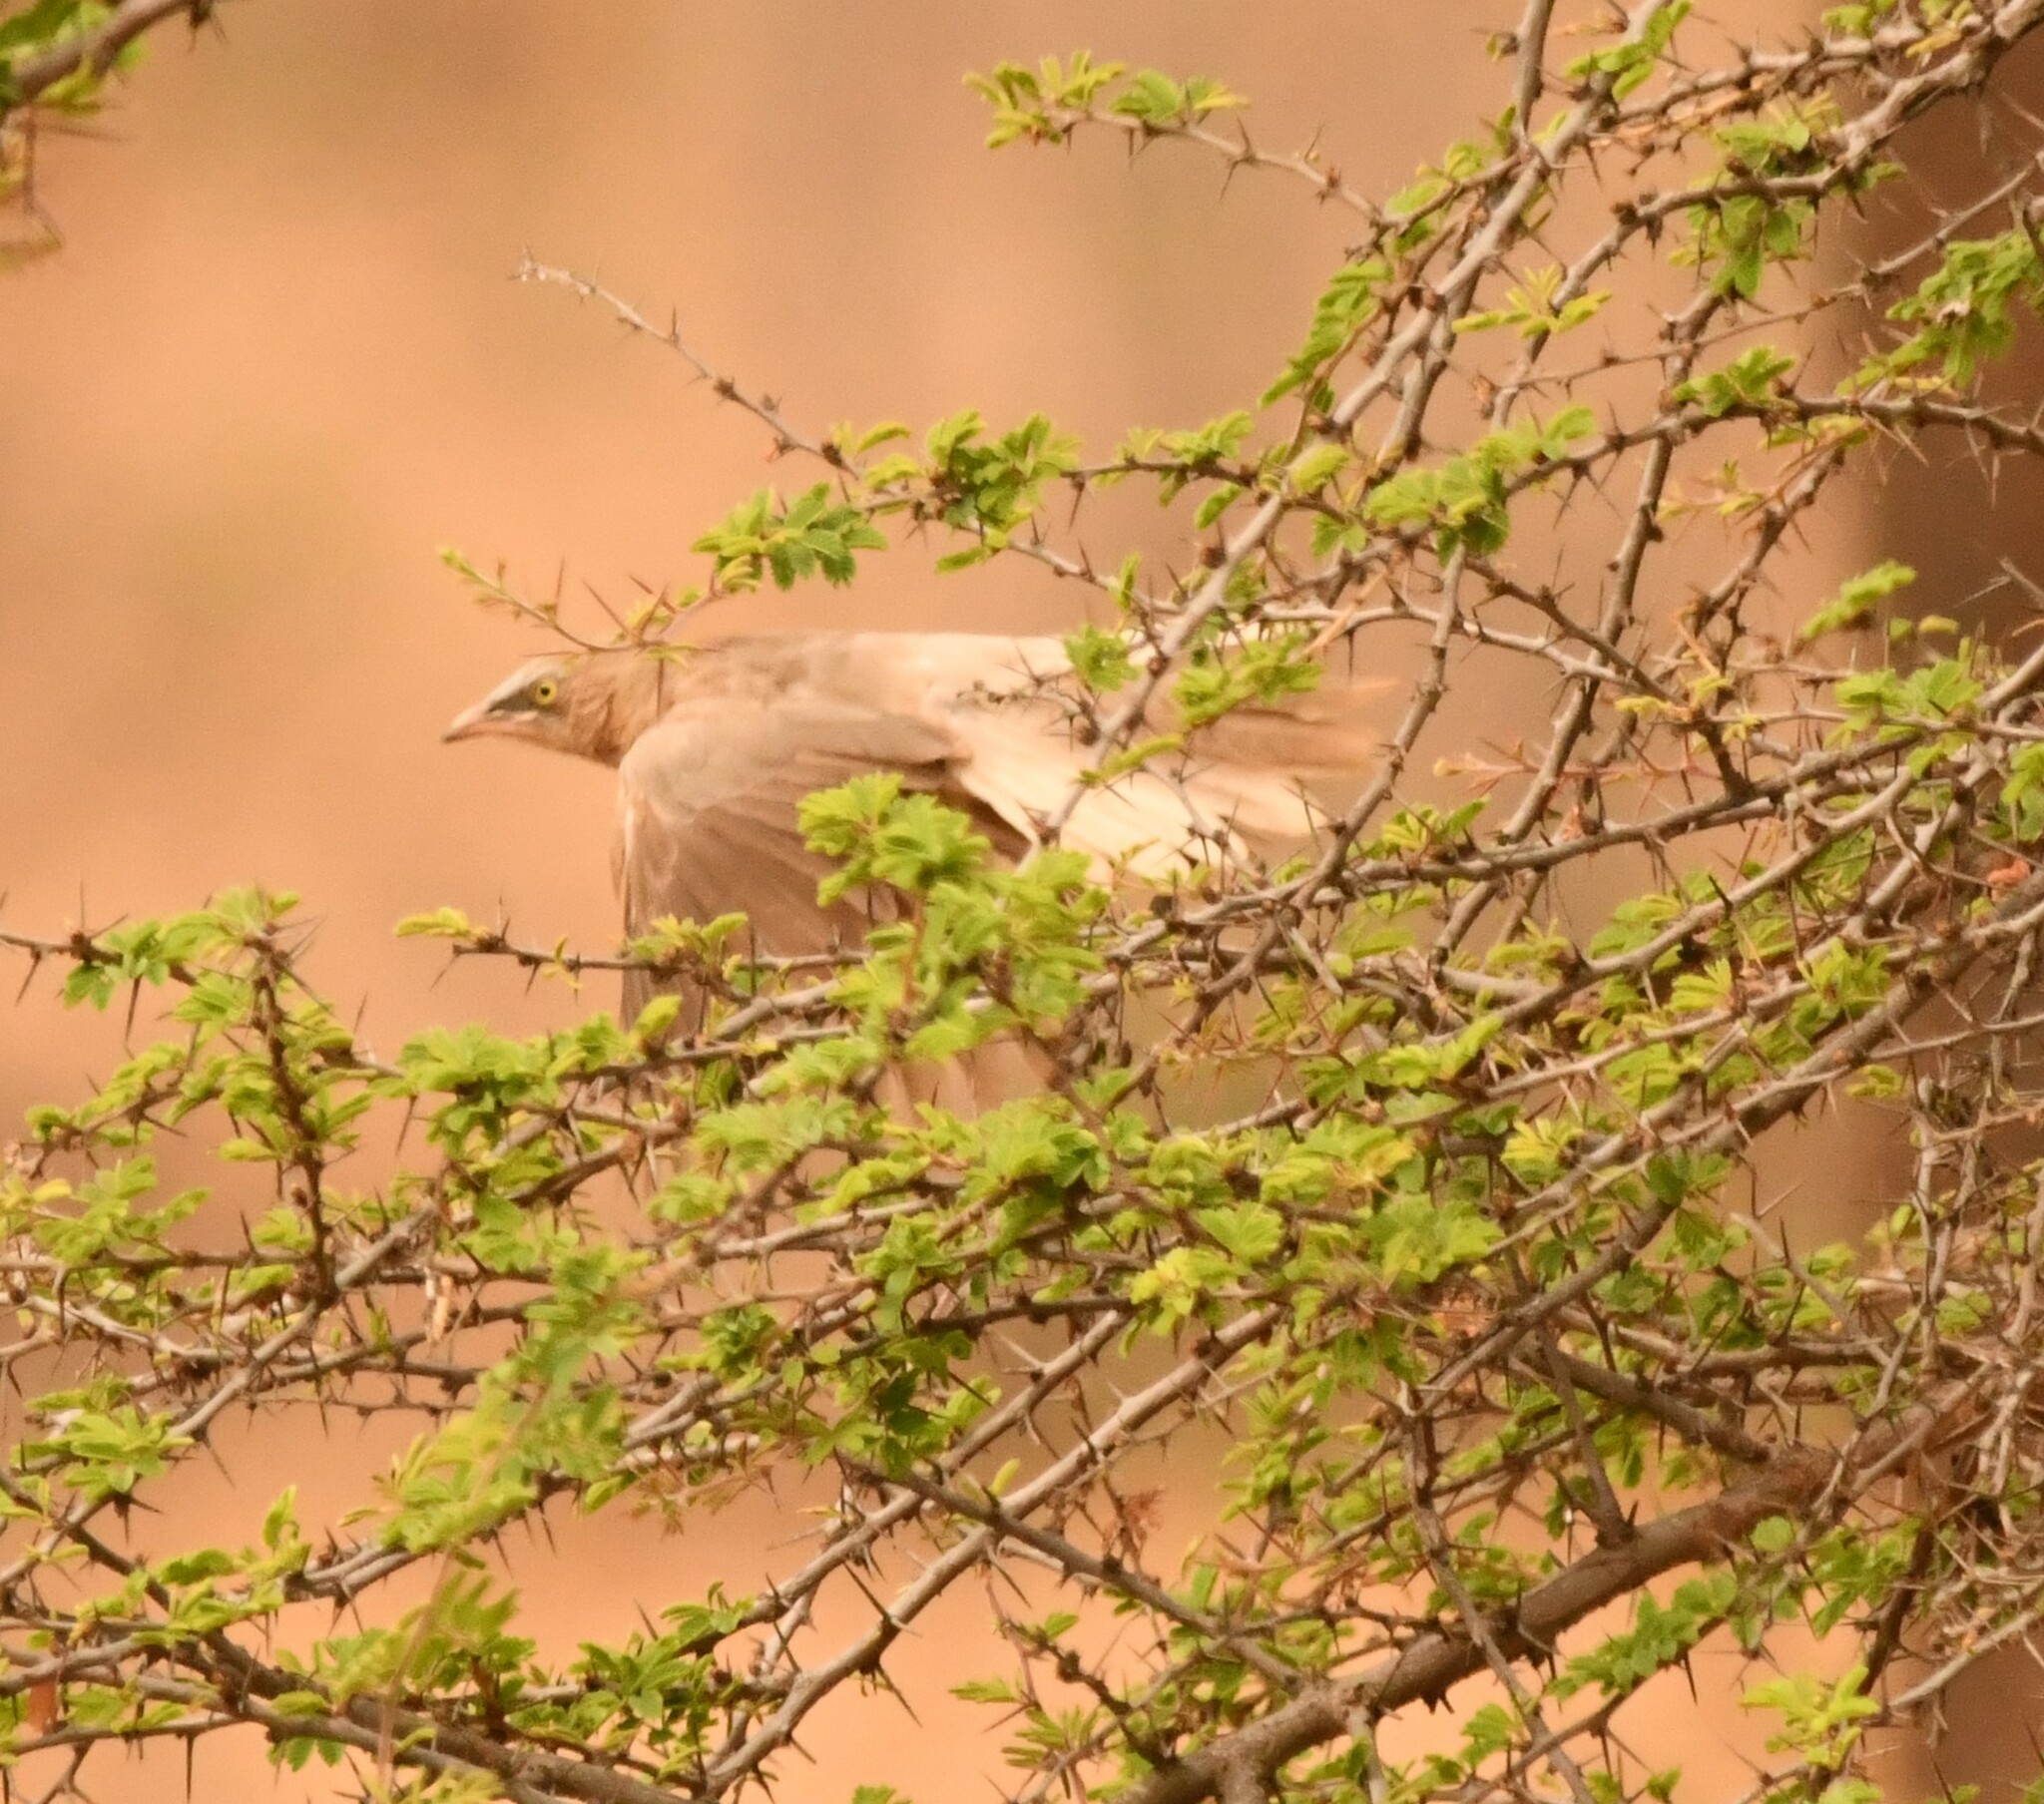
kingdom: Animalia
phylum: Chordata
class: Aves
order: Passeriformes
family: Leiothrichidae
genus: Turdoides
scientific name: Turdoides malcolmi
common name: Large grey babbler
